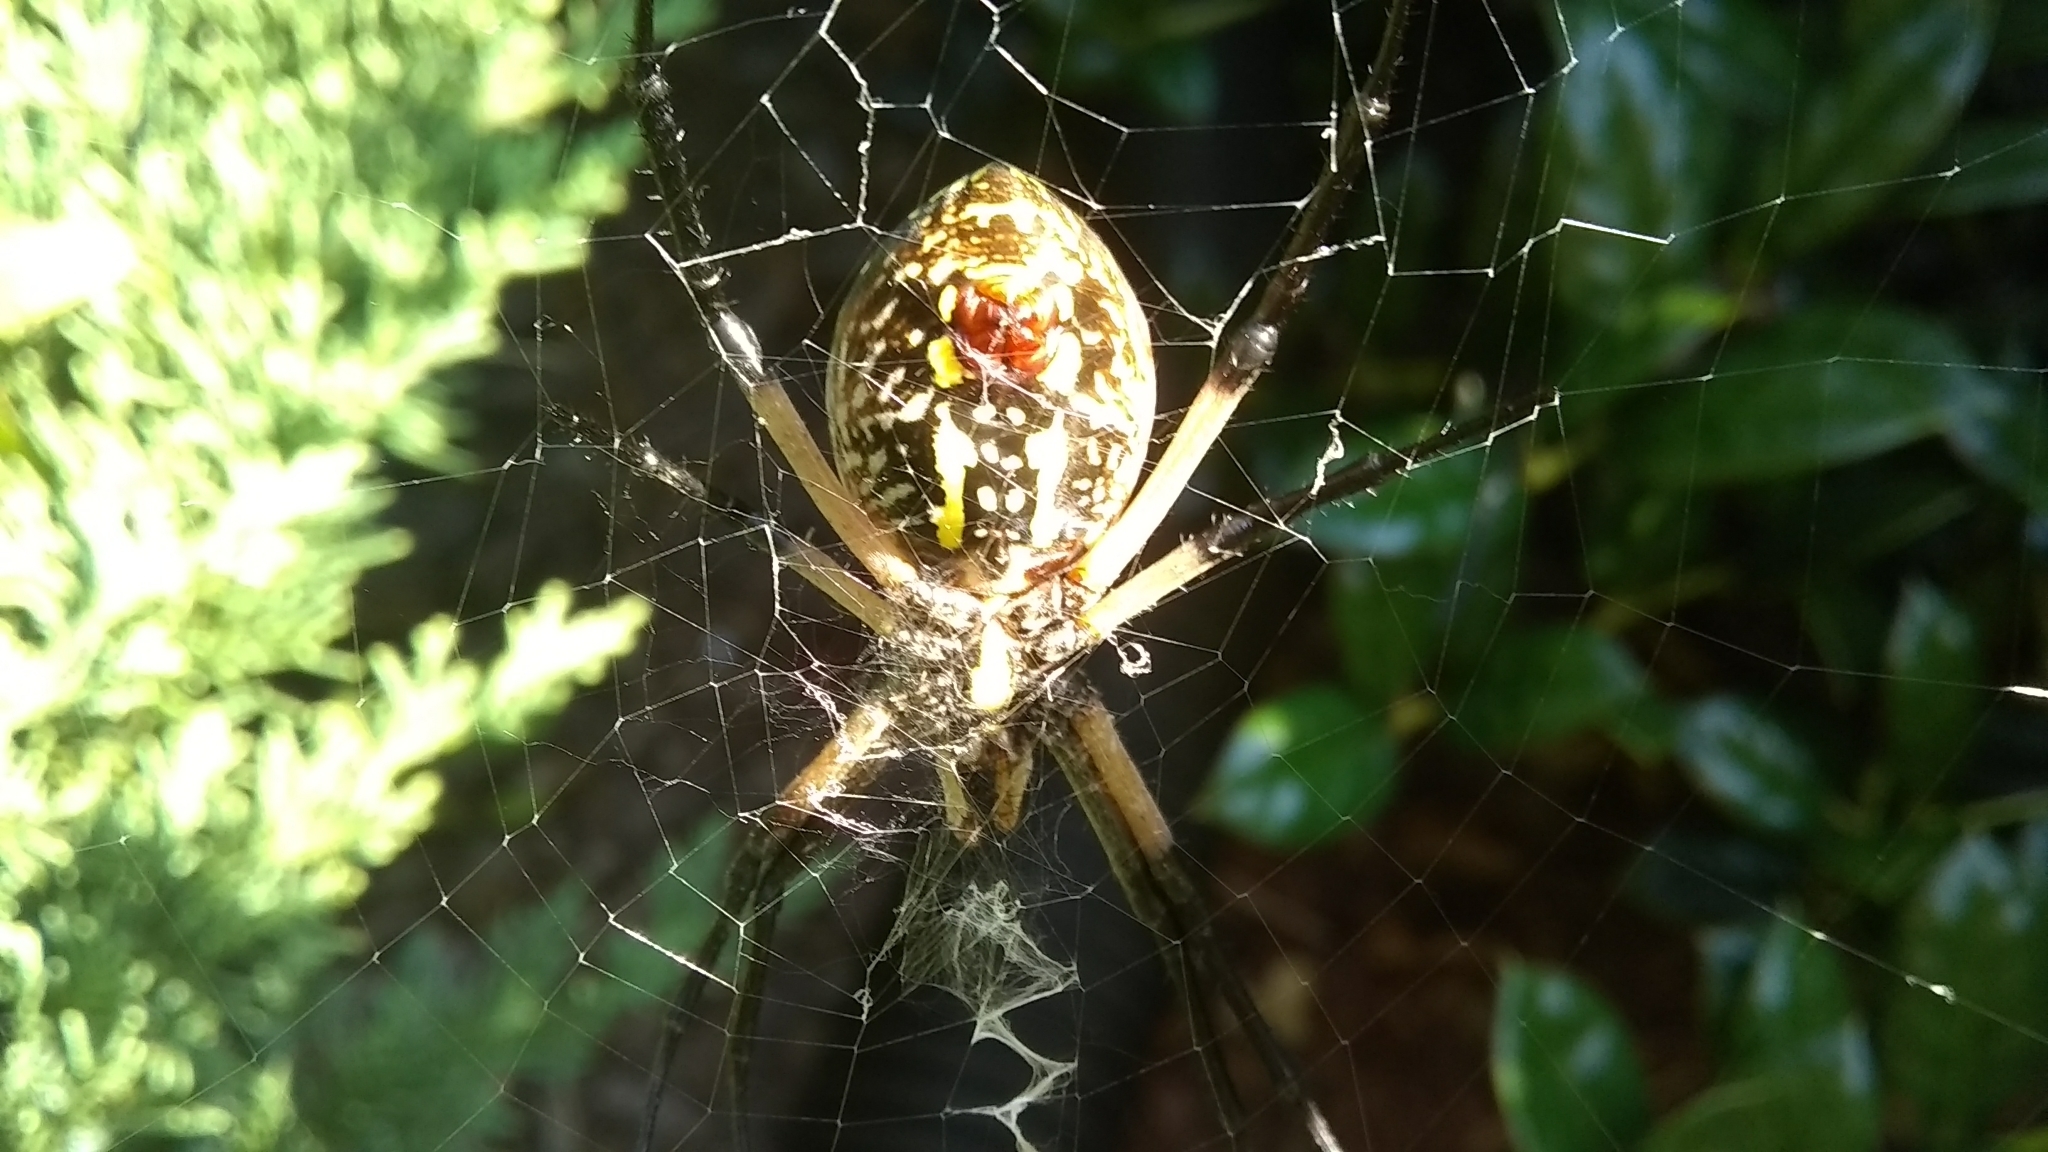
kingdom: Animalia
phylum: Arthropoda
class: Arachnida
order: Araneae
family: Araneidae
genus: Argiope
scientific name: Argiope aurantia
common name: Orb weavers
